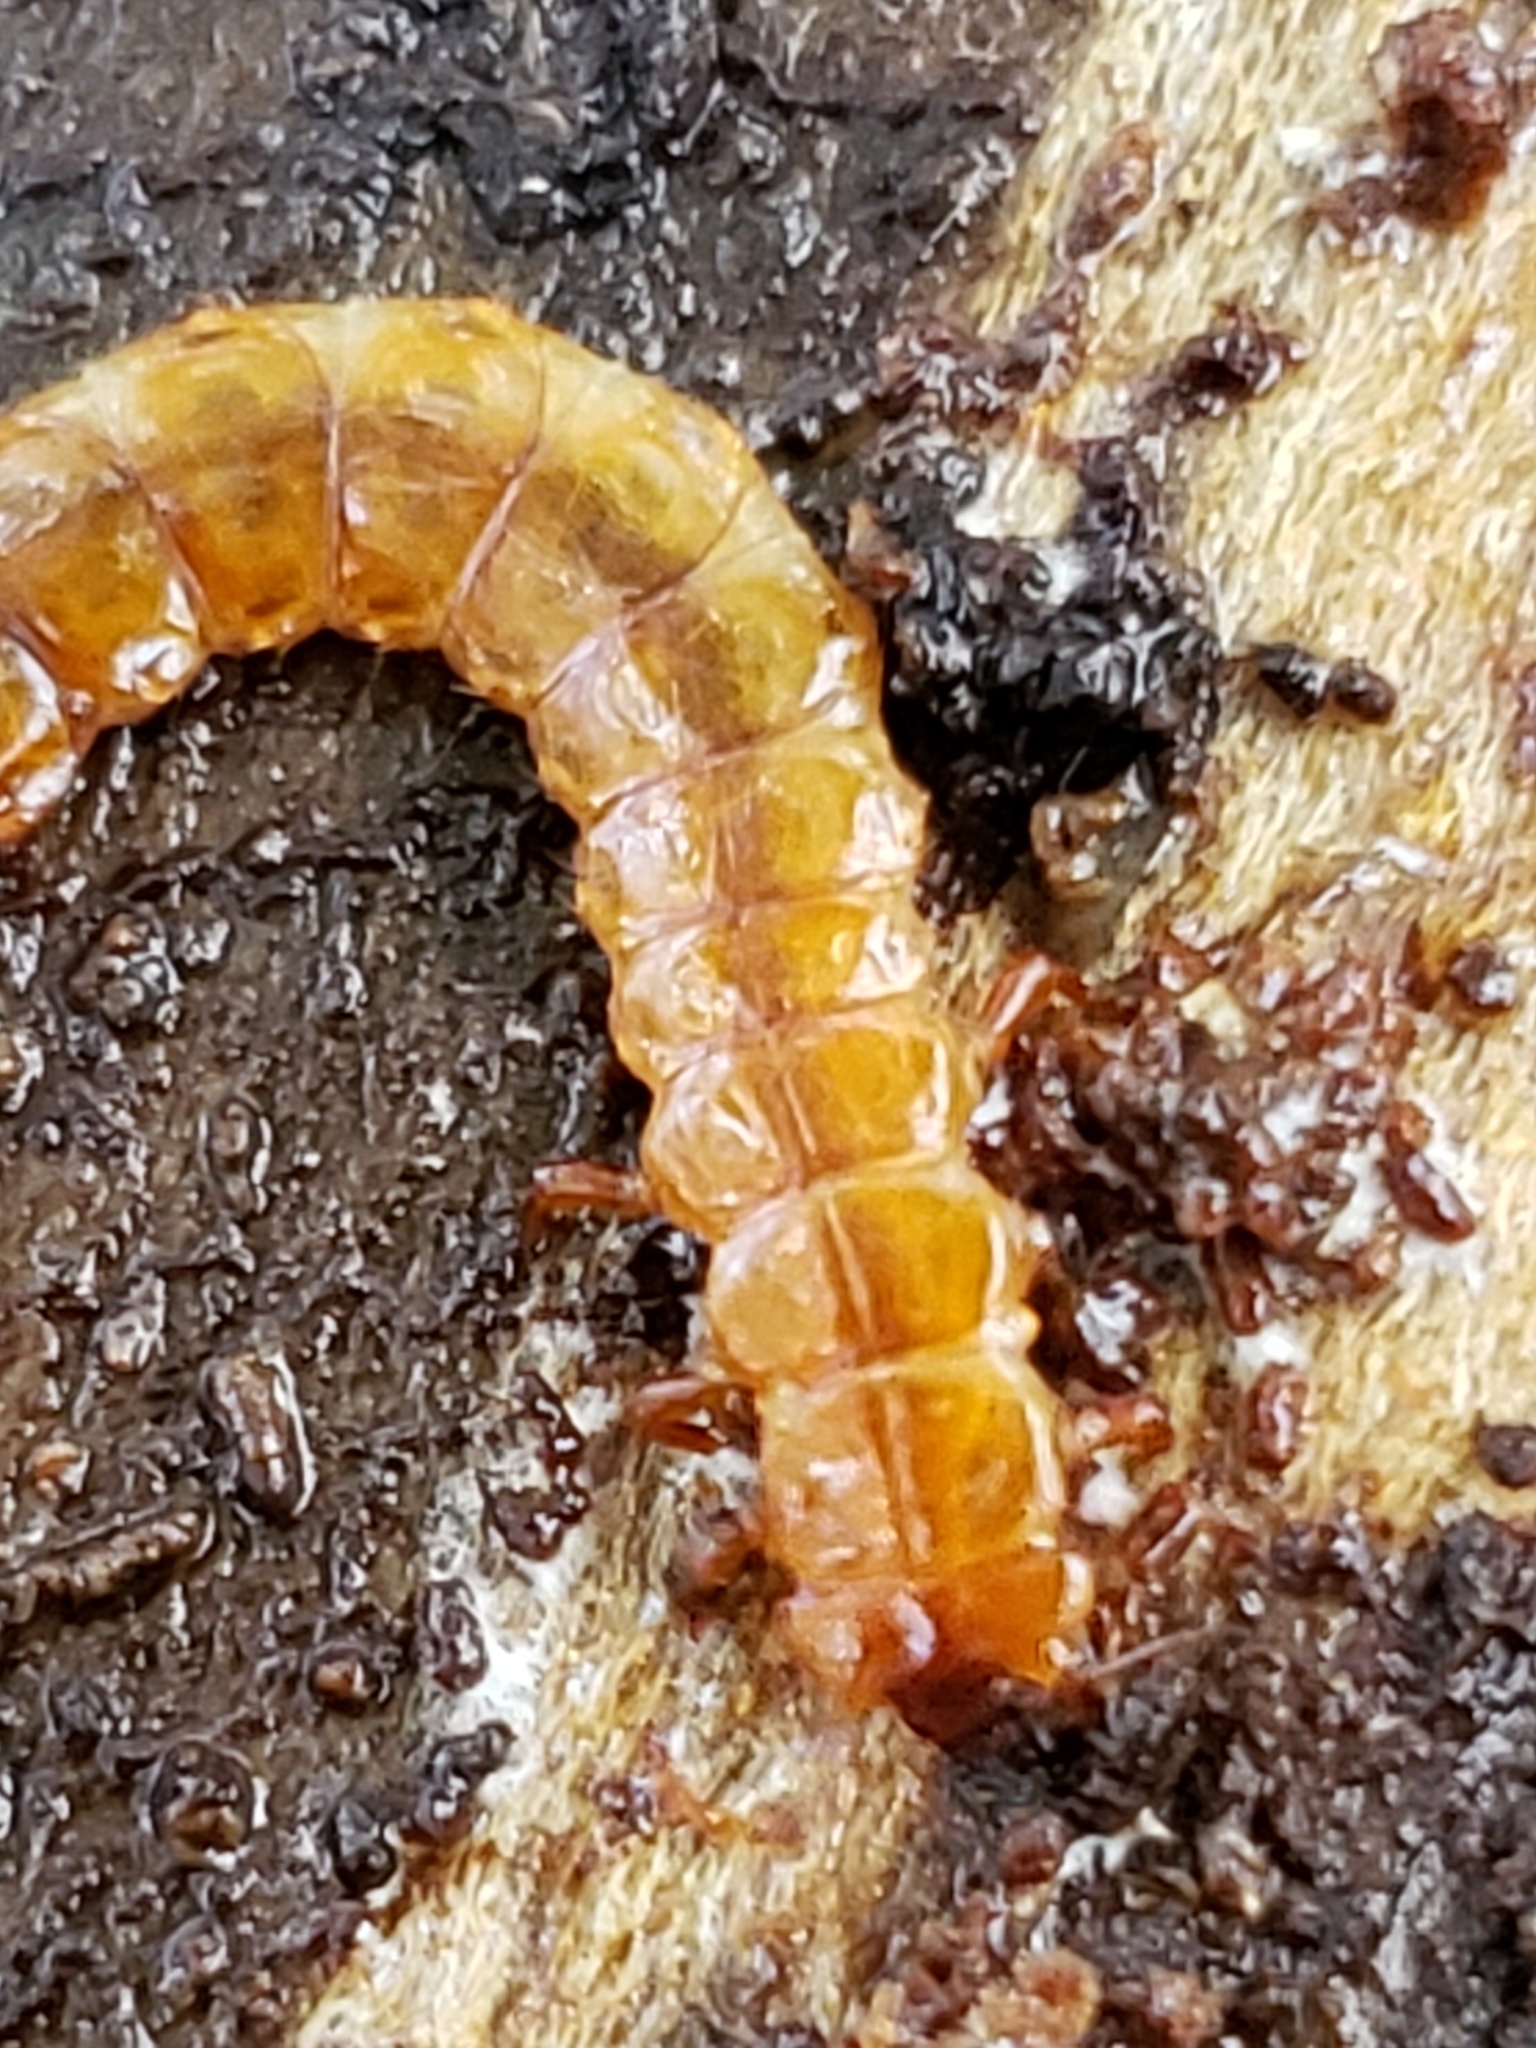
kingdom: Animalia
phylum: Arthropoda
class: Insecta
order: Coleoptera
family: Cucujidae
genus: Cucujus
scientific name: Cucujus clavipes
